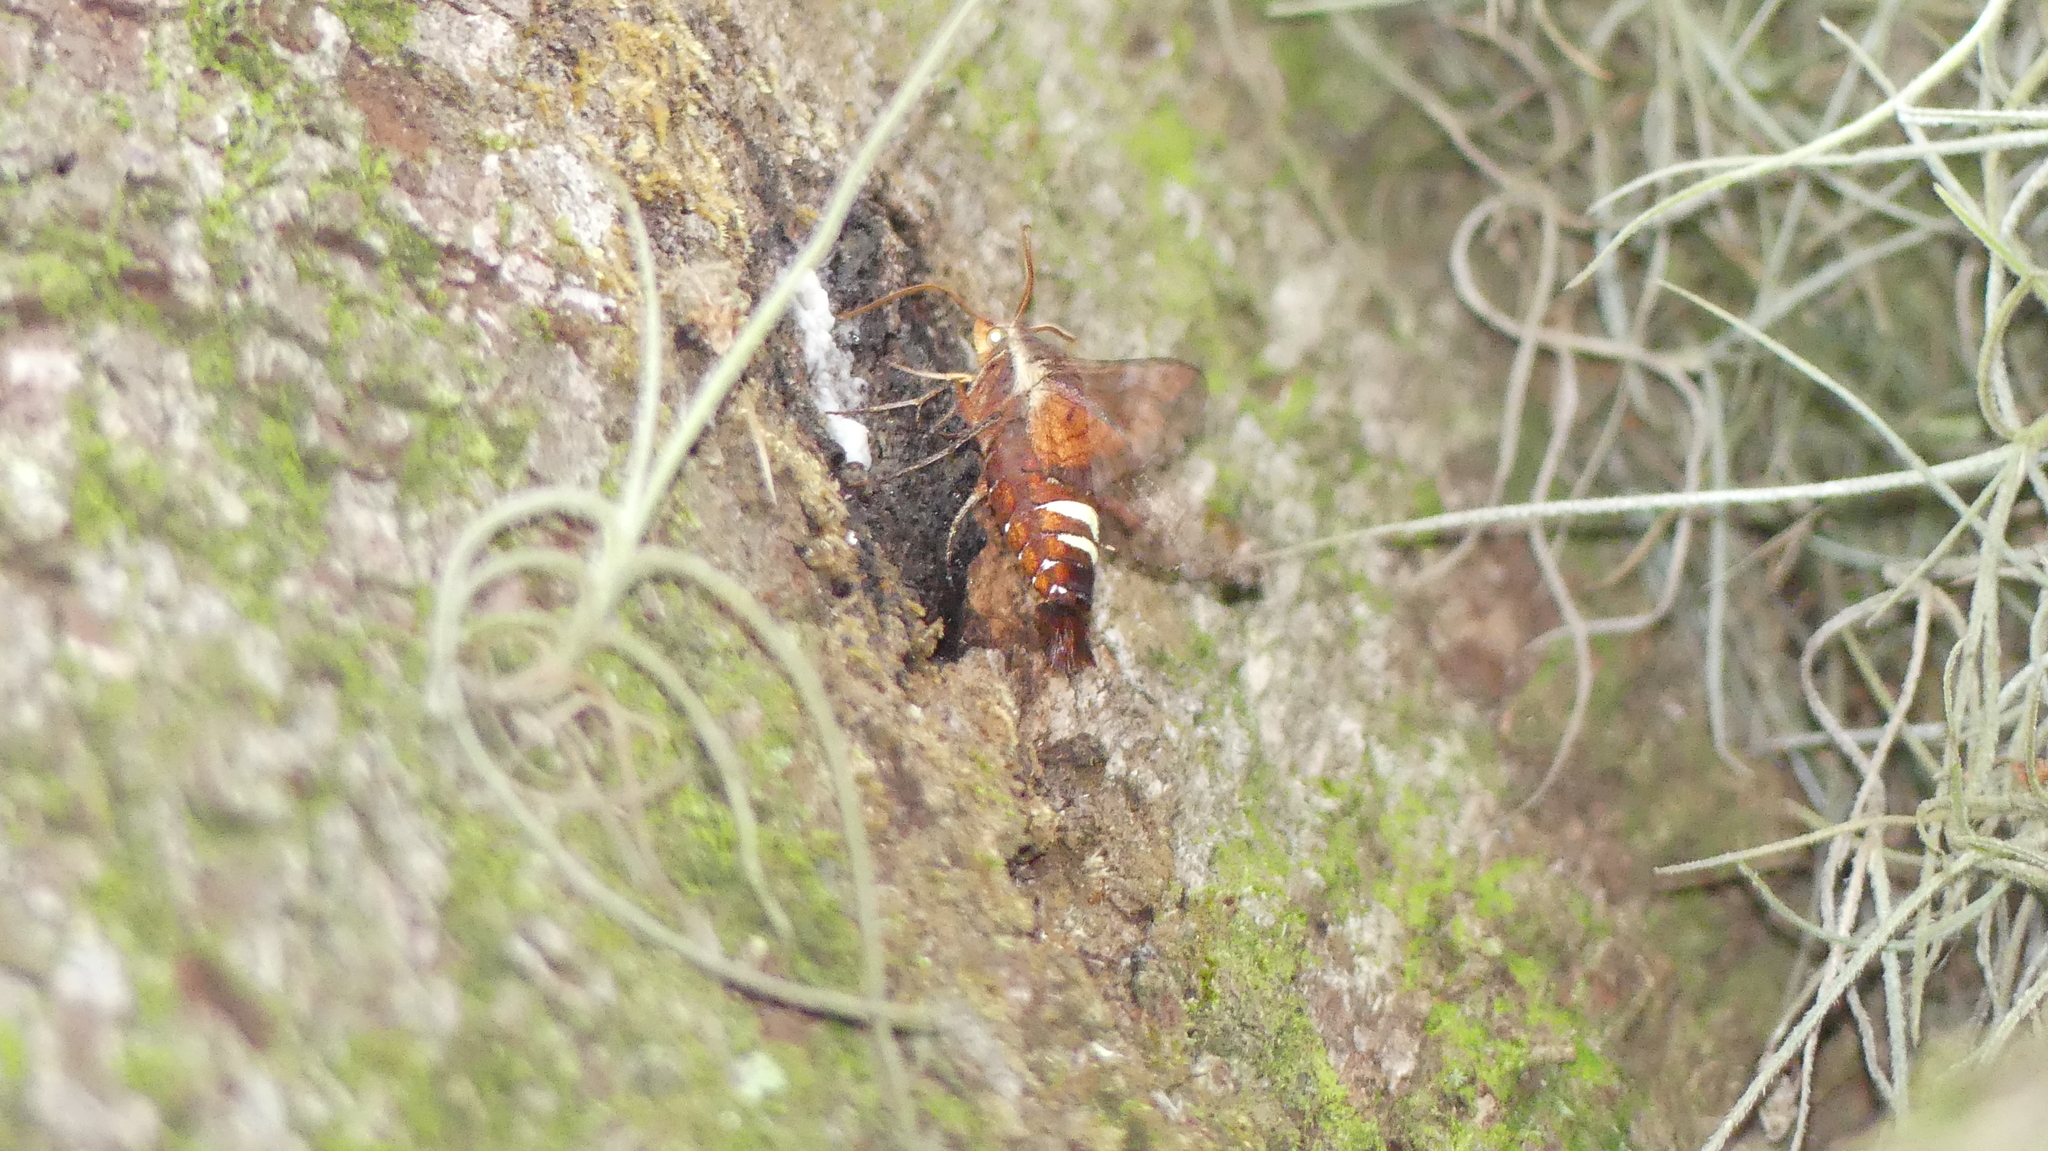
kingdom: Animalia
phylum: Arthropoda
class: Insecta
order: Lepidoptera
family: Sphingidae
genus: Amphion
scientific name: Amphion floridensis
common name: Nessus sphinx
